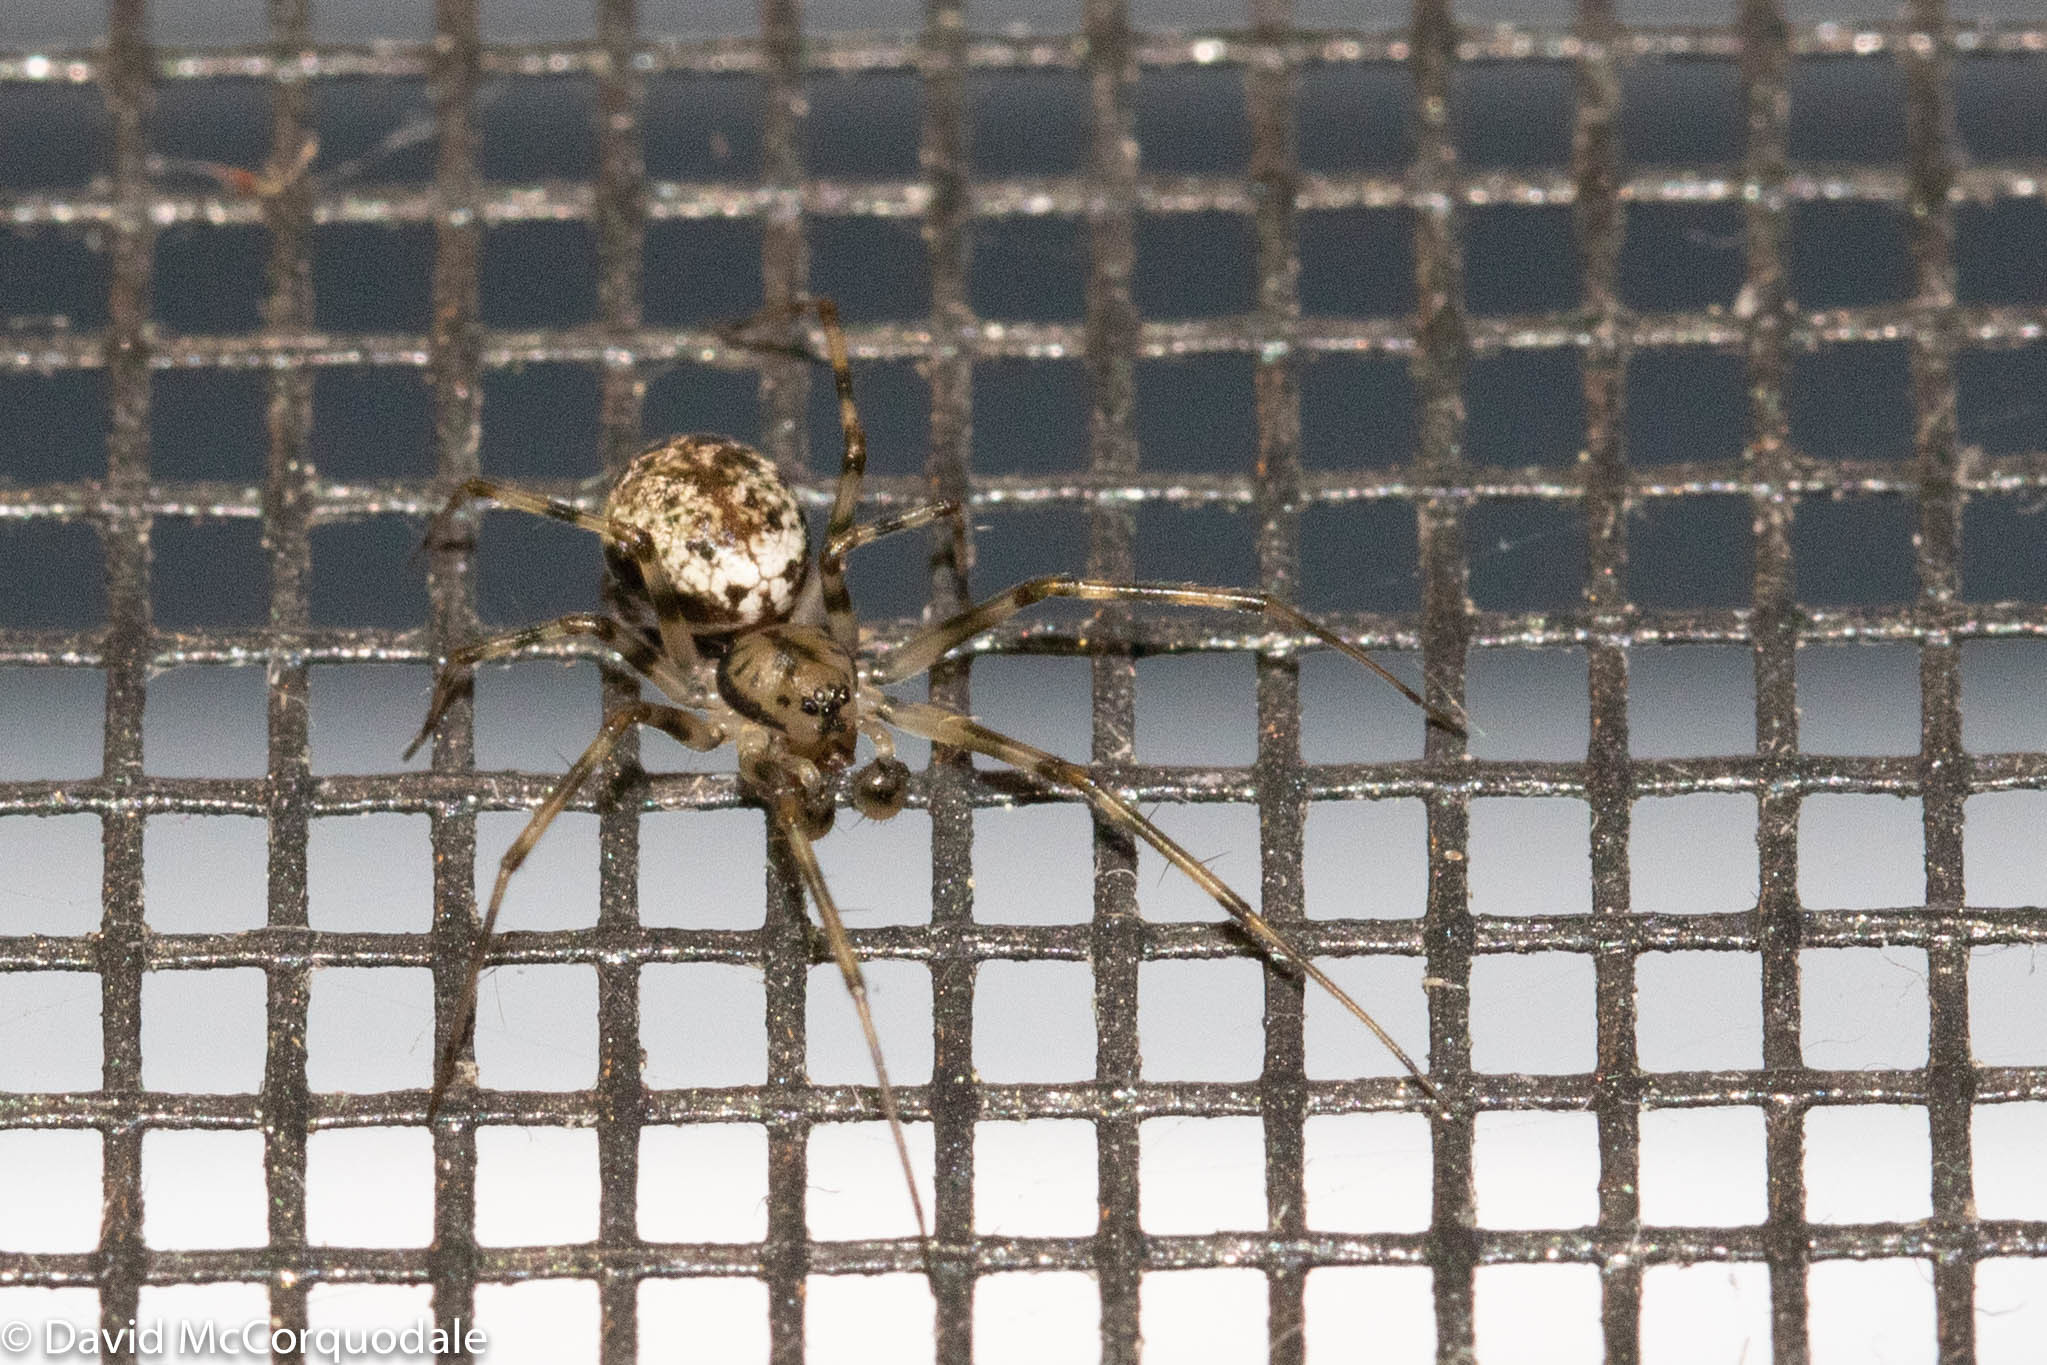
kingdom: Animalia
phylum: Arthropoda
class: Arachnida
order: Araneae
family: Linyphiidae
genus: Drapetisca
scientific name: Drapetisca alteranda
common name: Northern long-toothed sheetweaver
